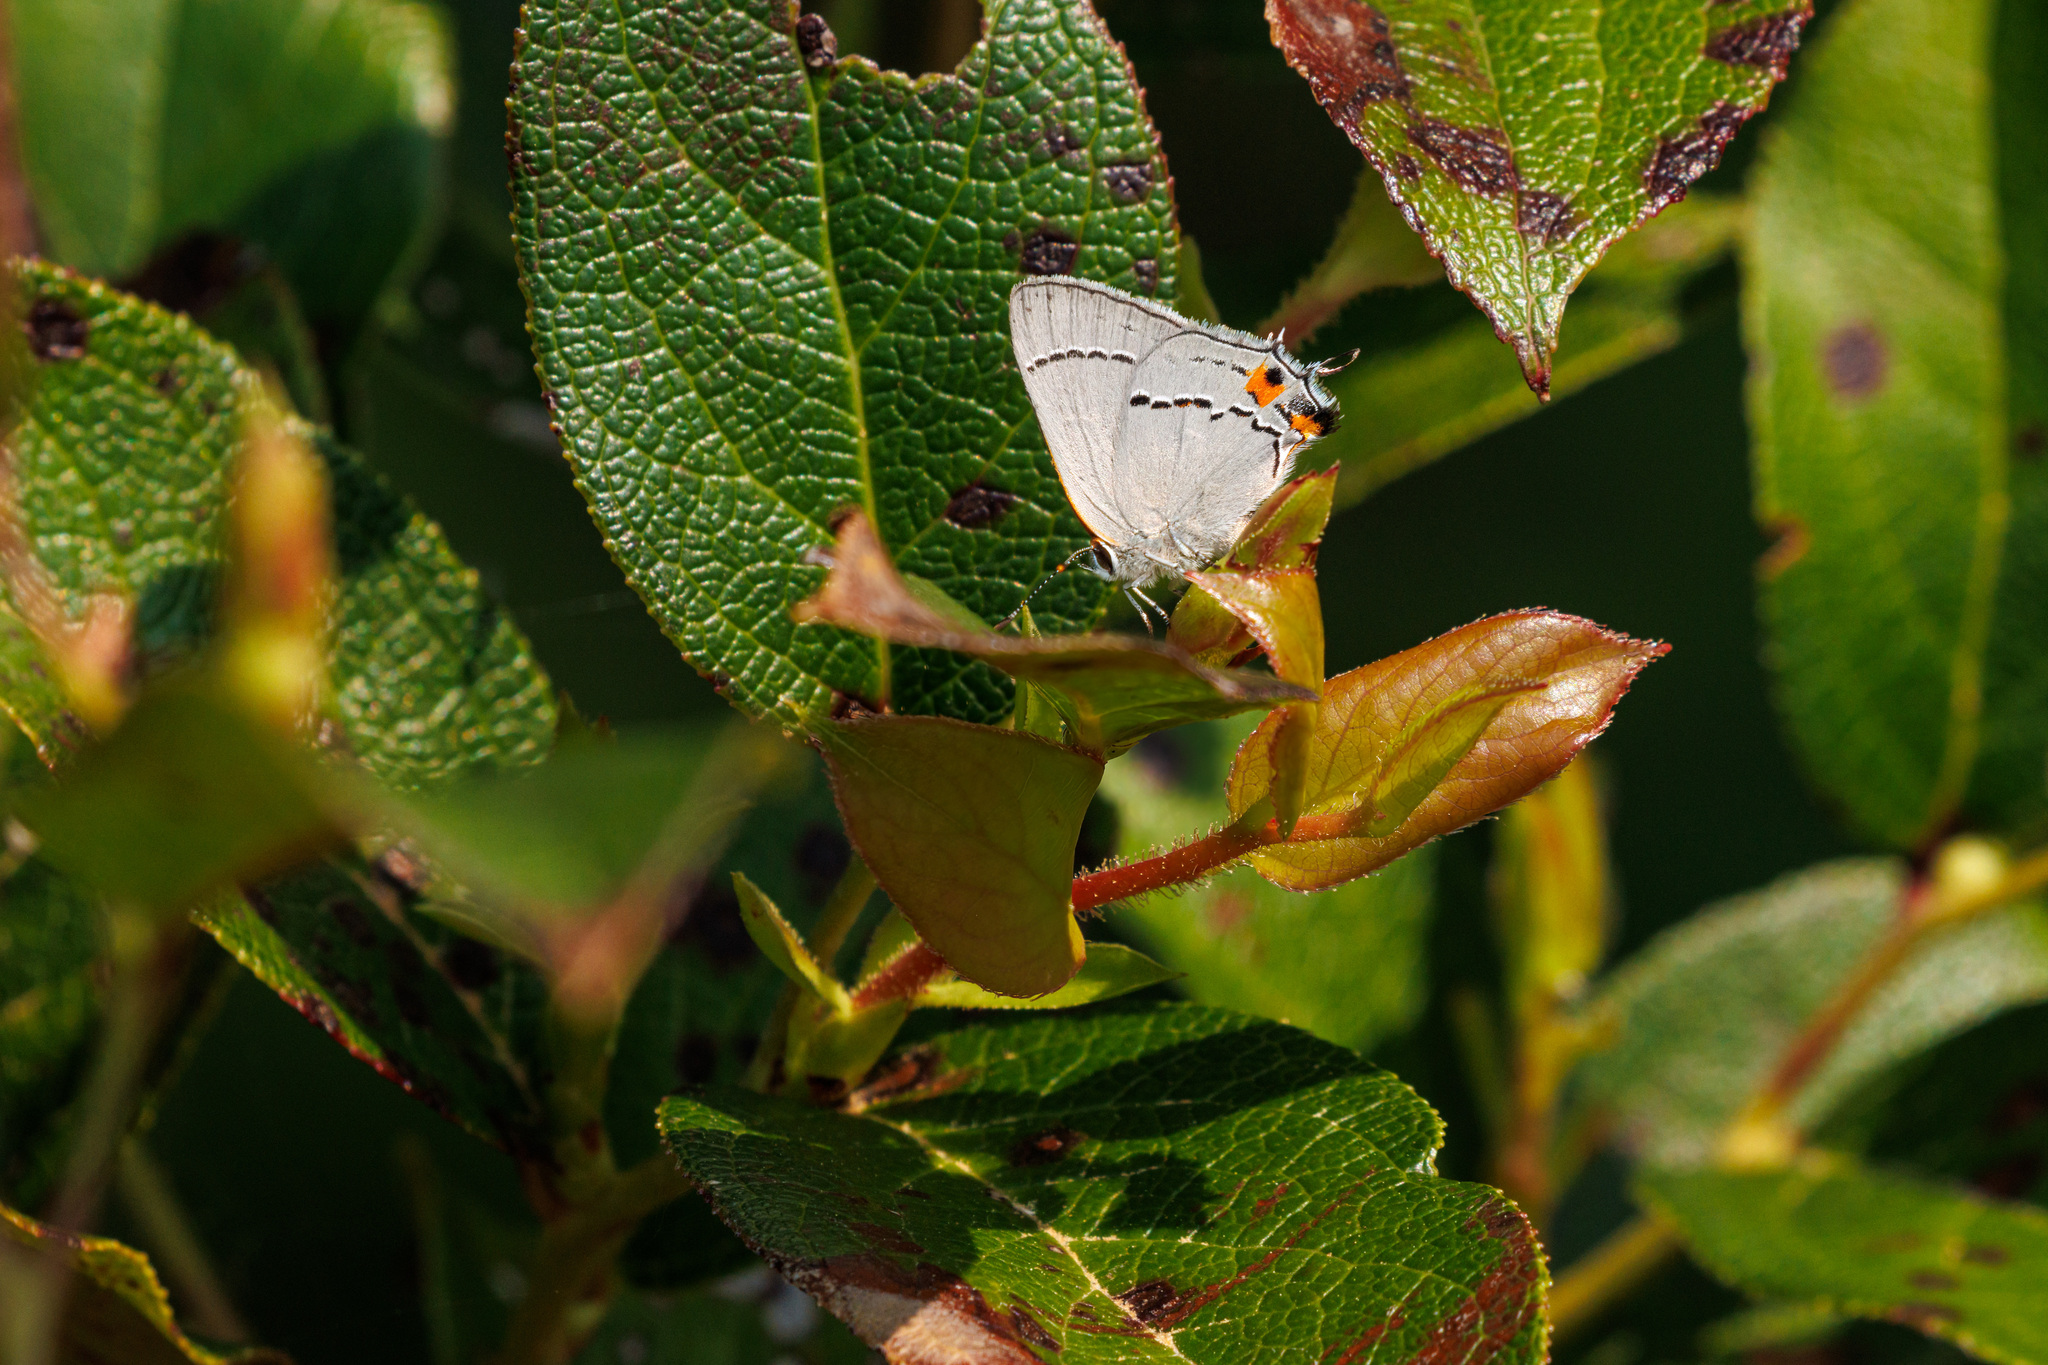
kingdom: Animalia
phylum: Arthropoda
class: Insecta
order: Lepidoptera
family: Lycaenidae
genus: Strymon
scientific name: Strymon melinus
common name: Gray hairstreak
